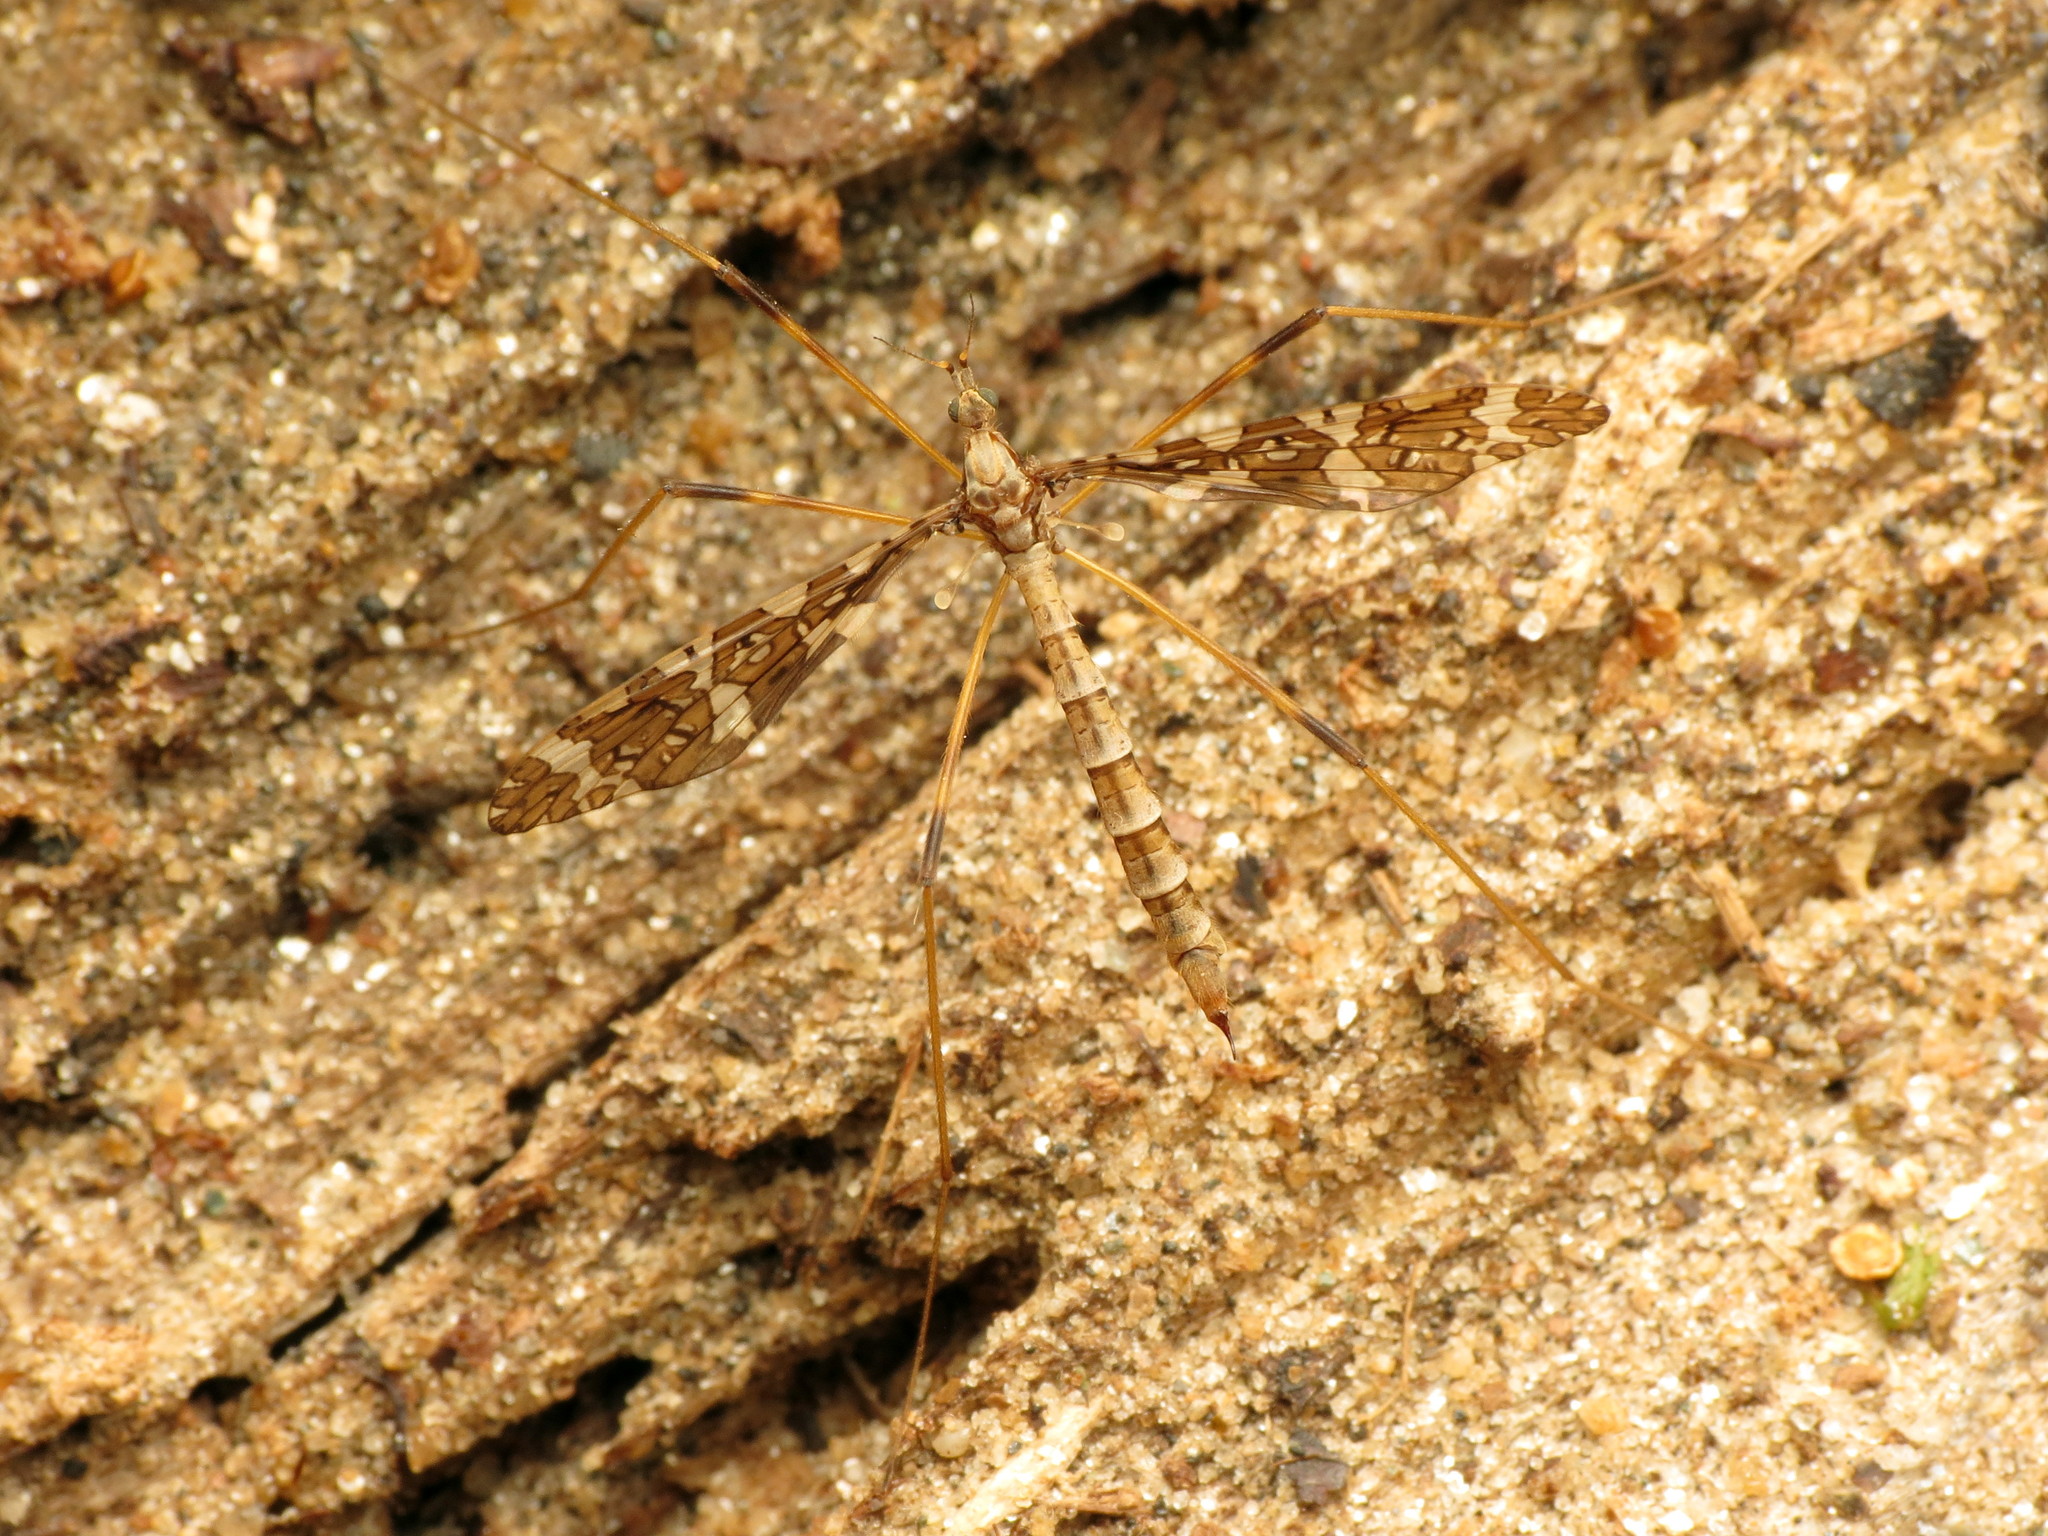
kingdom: Animalia
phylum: Arthropoda
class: Insecta
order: Diptera
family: Limoniidae
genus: Epiphragma
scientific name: Epiphragma fasciapenne
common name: Band-winged crane fly
